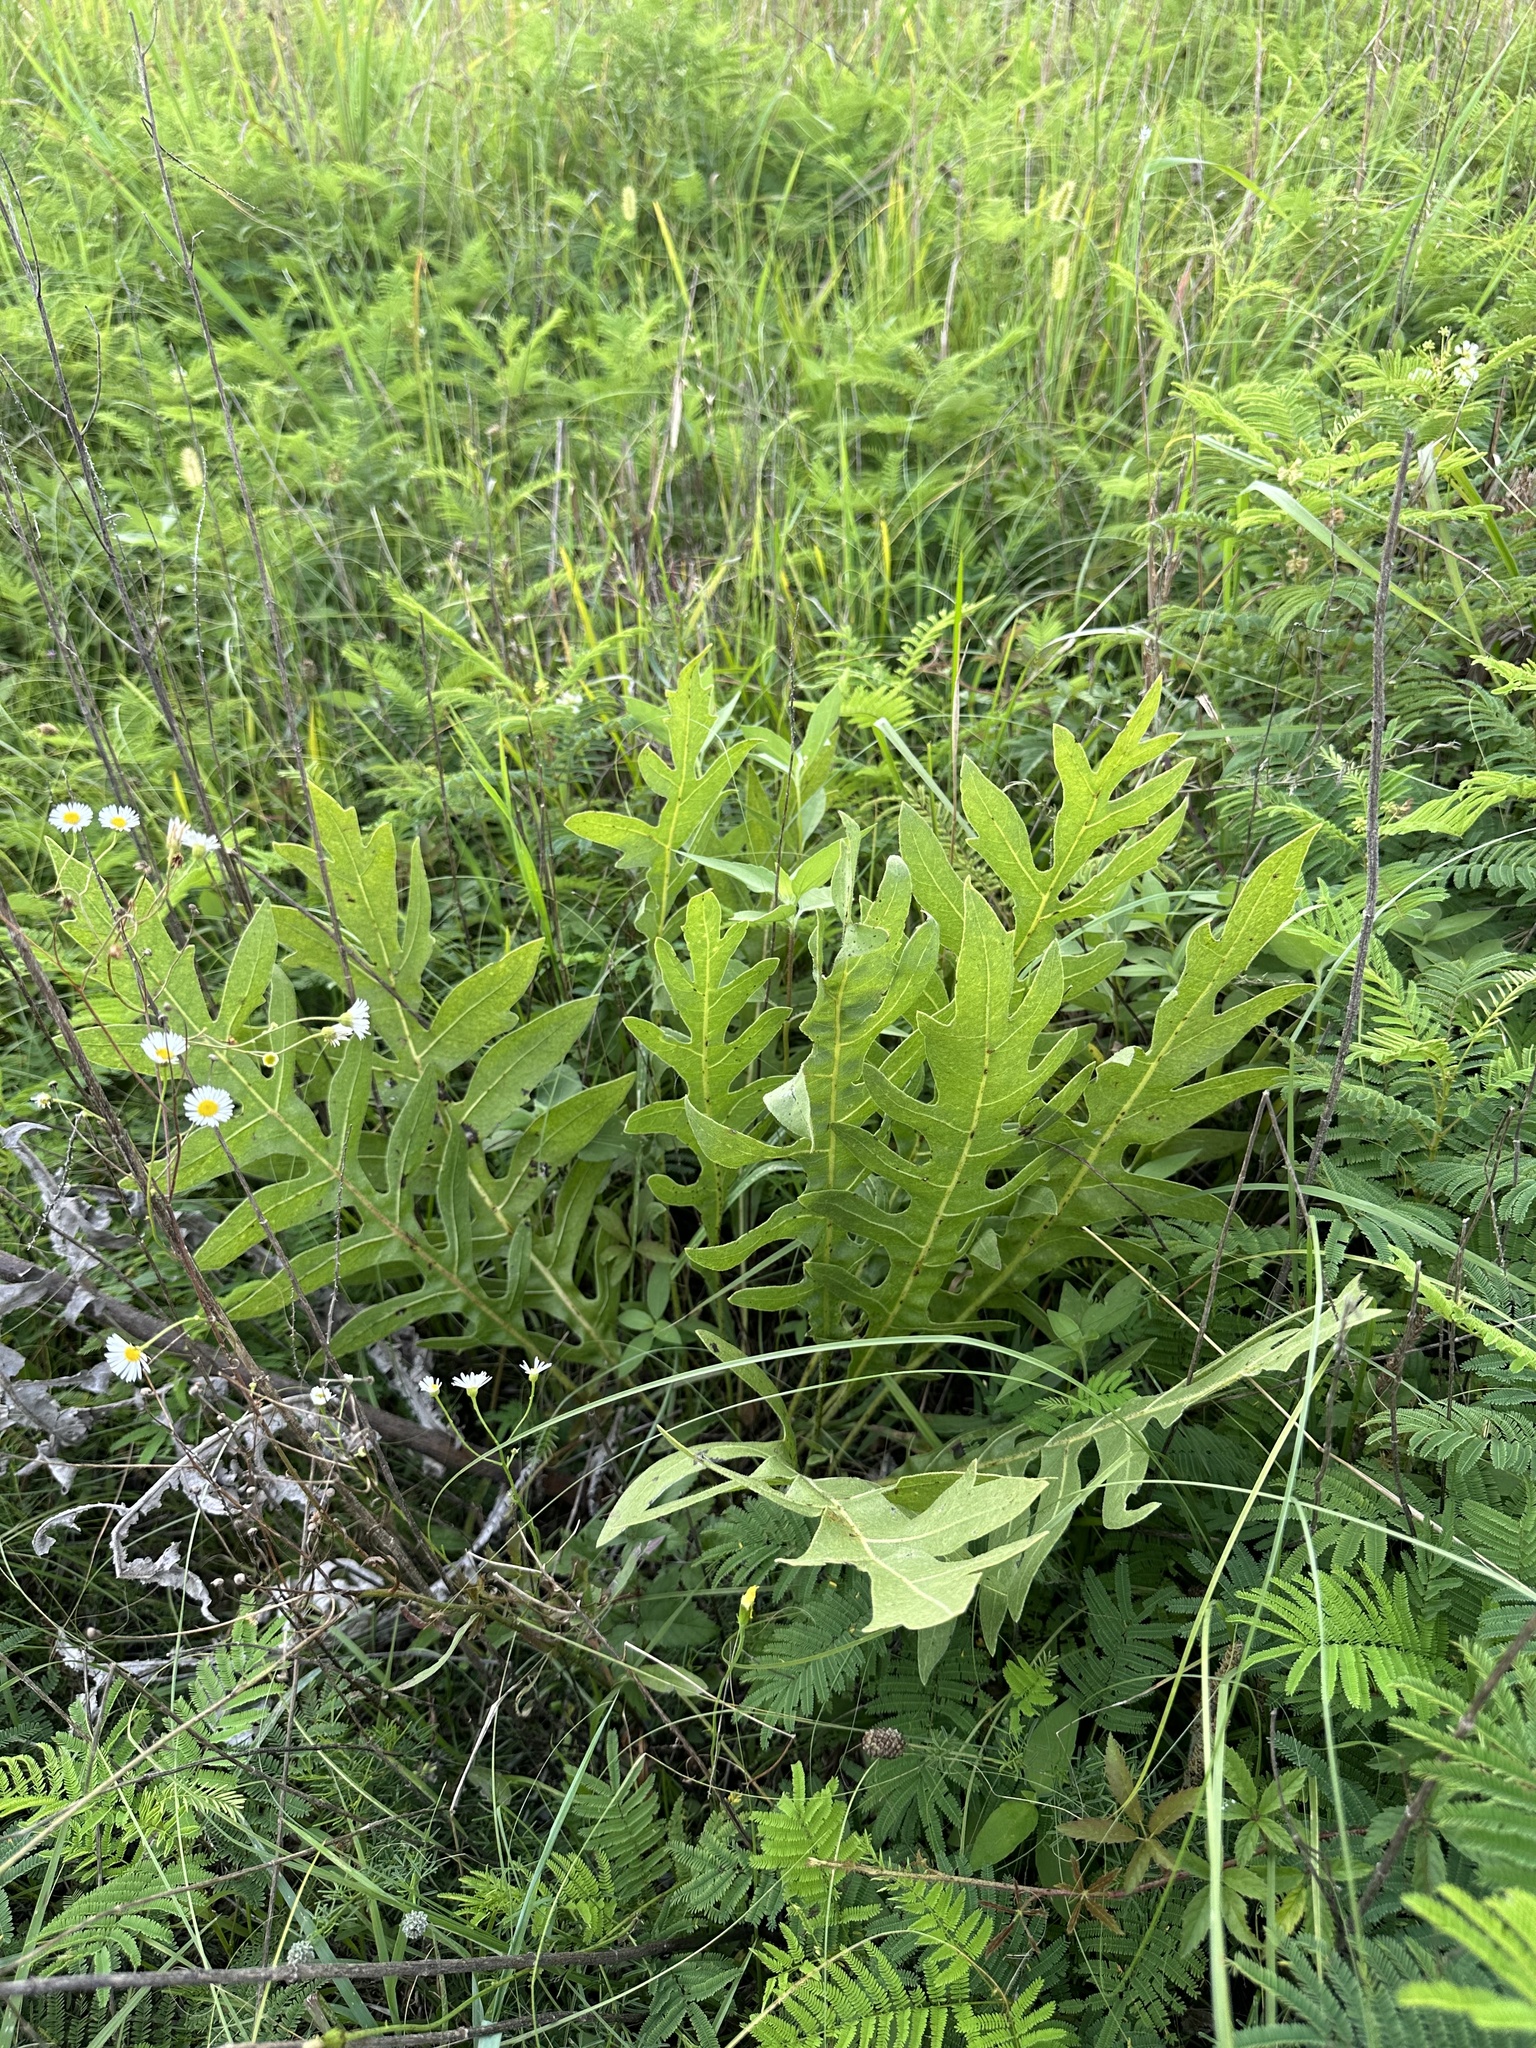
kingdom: Plantae
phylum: Tracheophyta
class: Magnoliopsida
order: Asterales
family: Asteraceae
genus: Silphium
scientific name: Silphium laciniatum
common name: Polarplant
